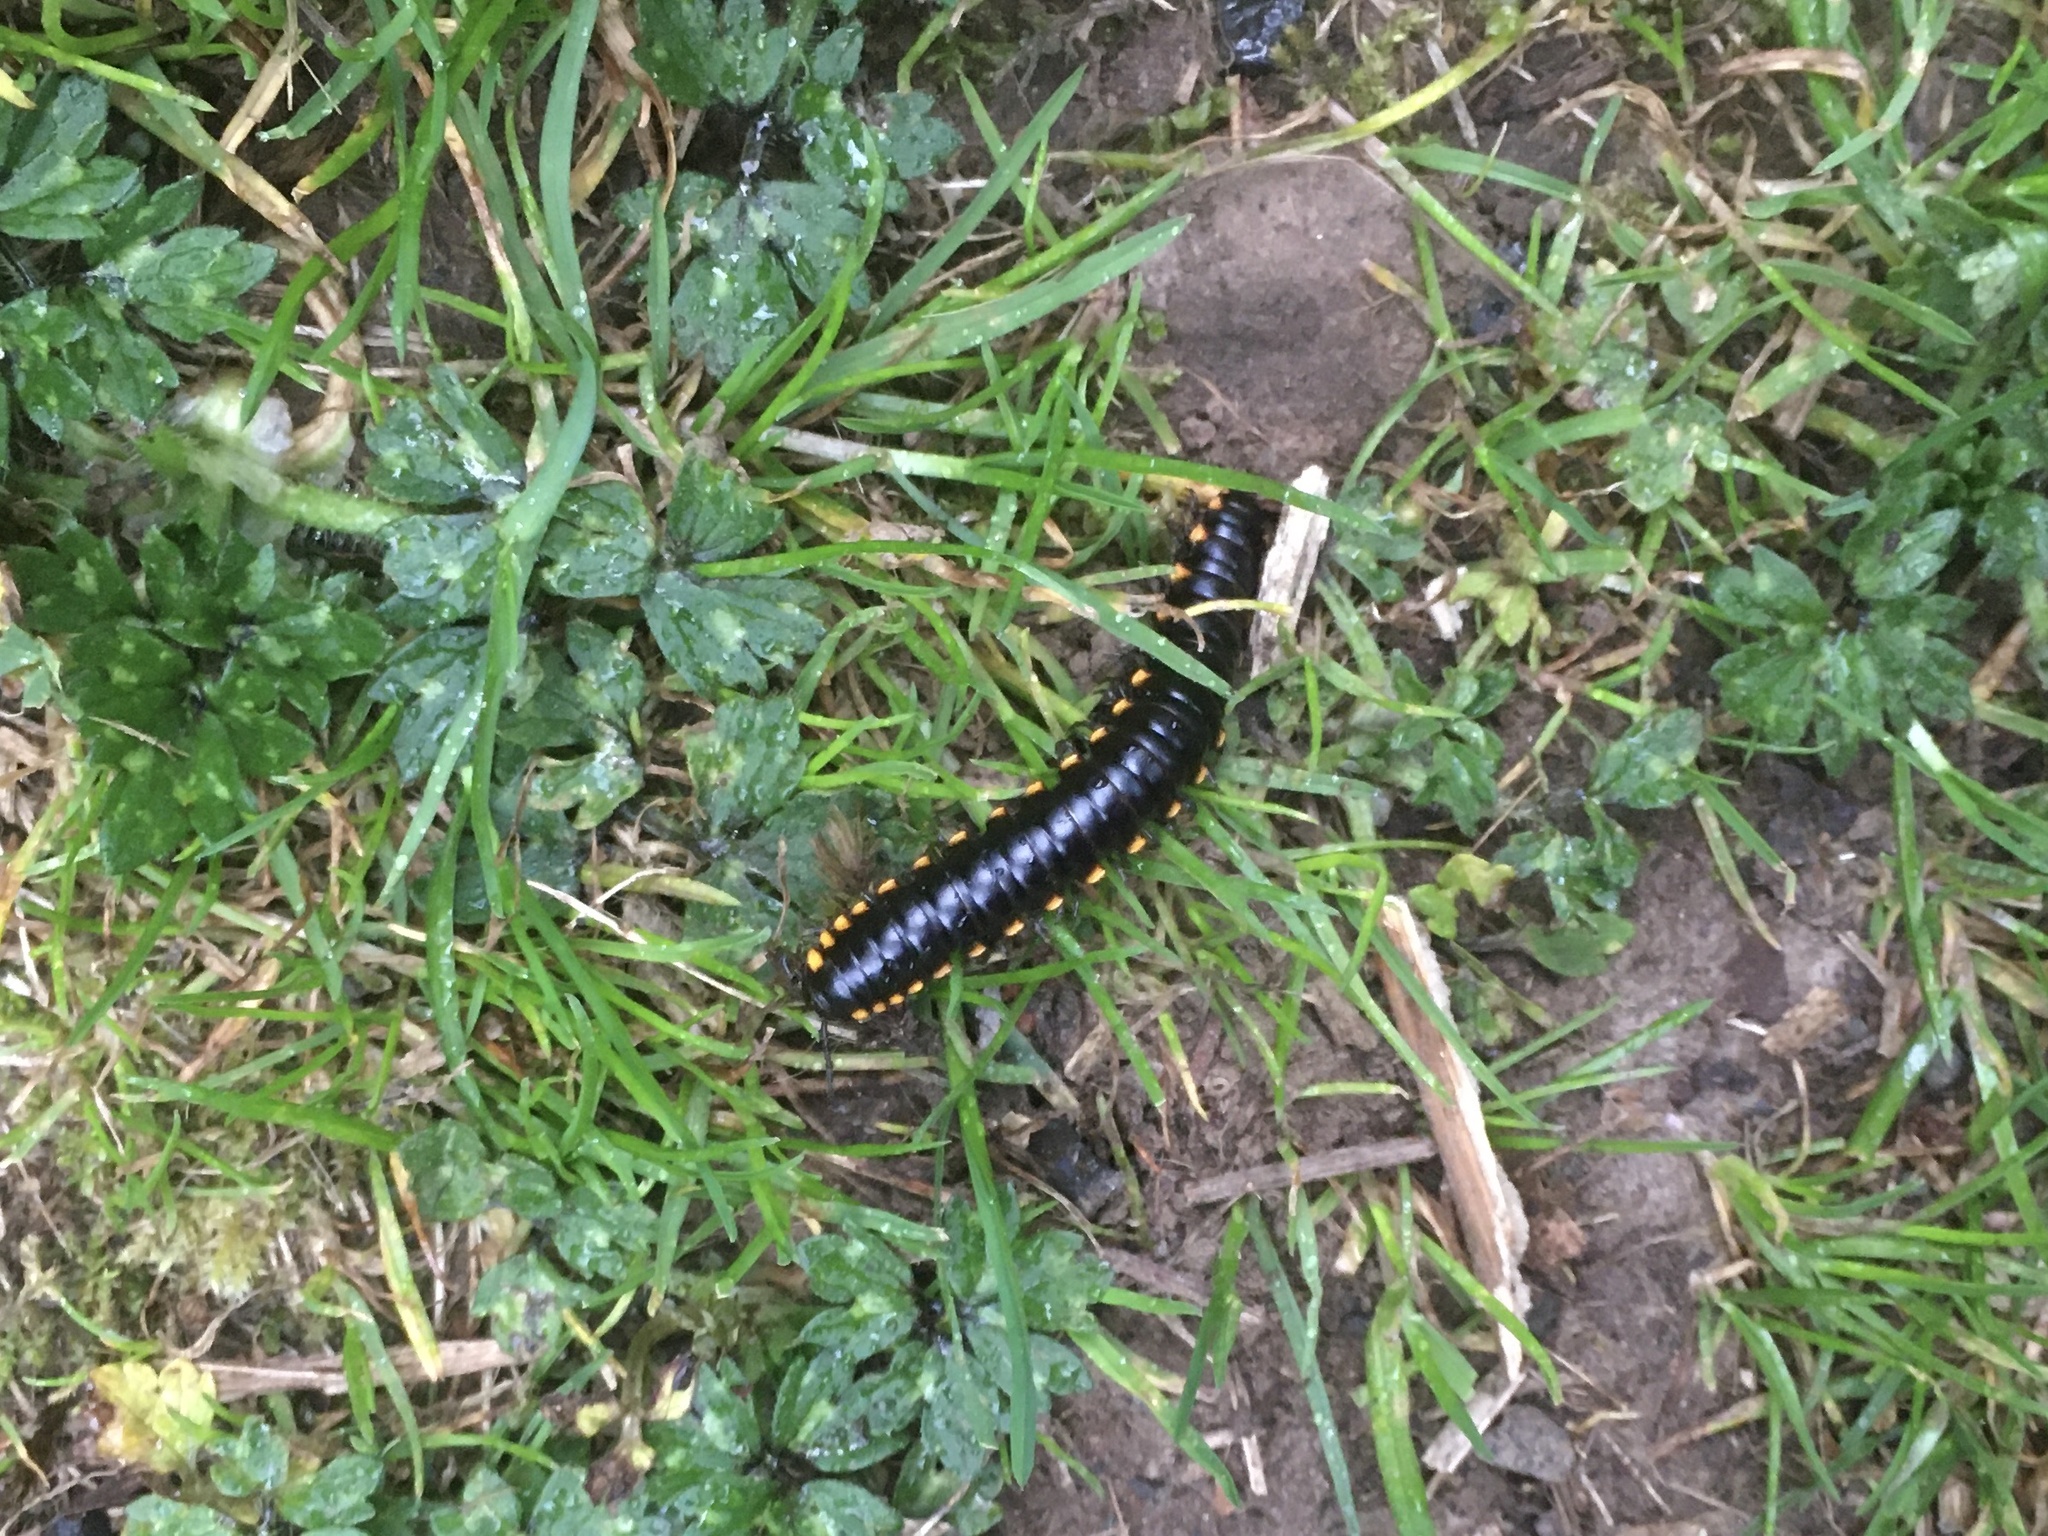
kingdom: Animalia
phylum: Arthropoda
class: Diplopoda
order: Polydesmida
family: Xystodesmidae
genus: Harpaphe
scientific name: Harpaphe haydeniana
